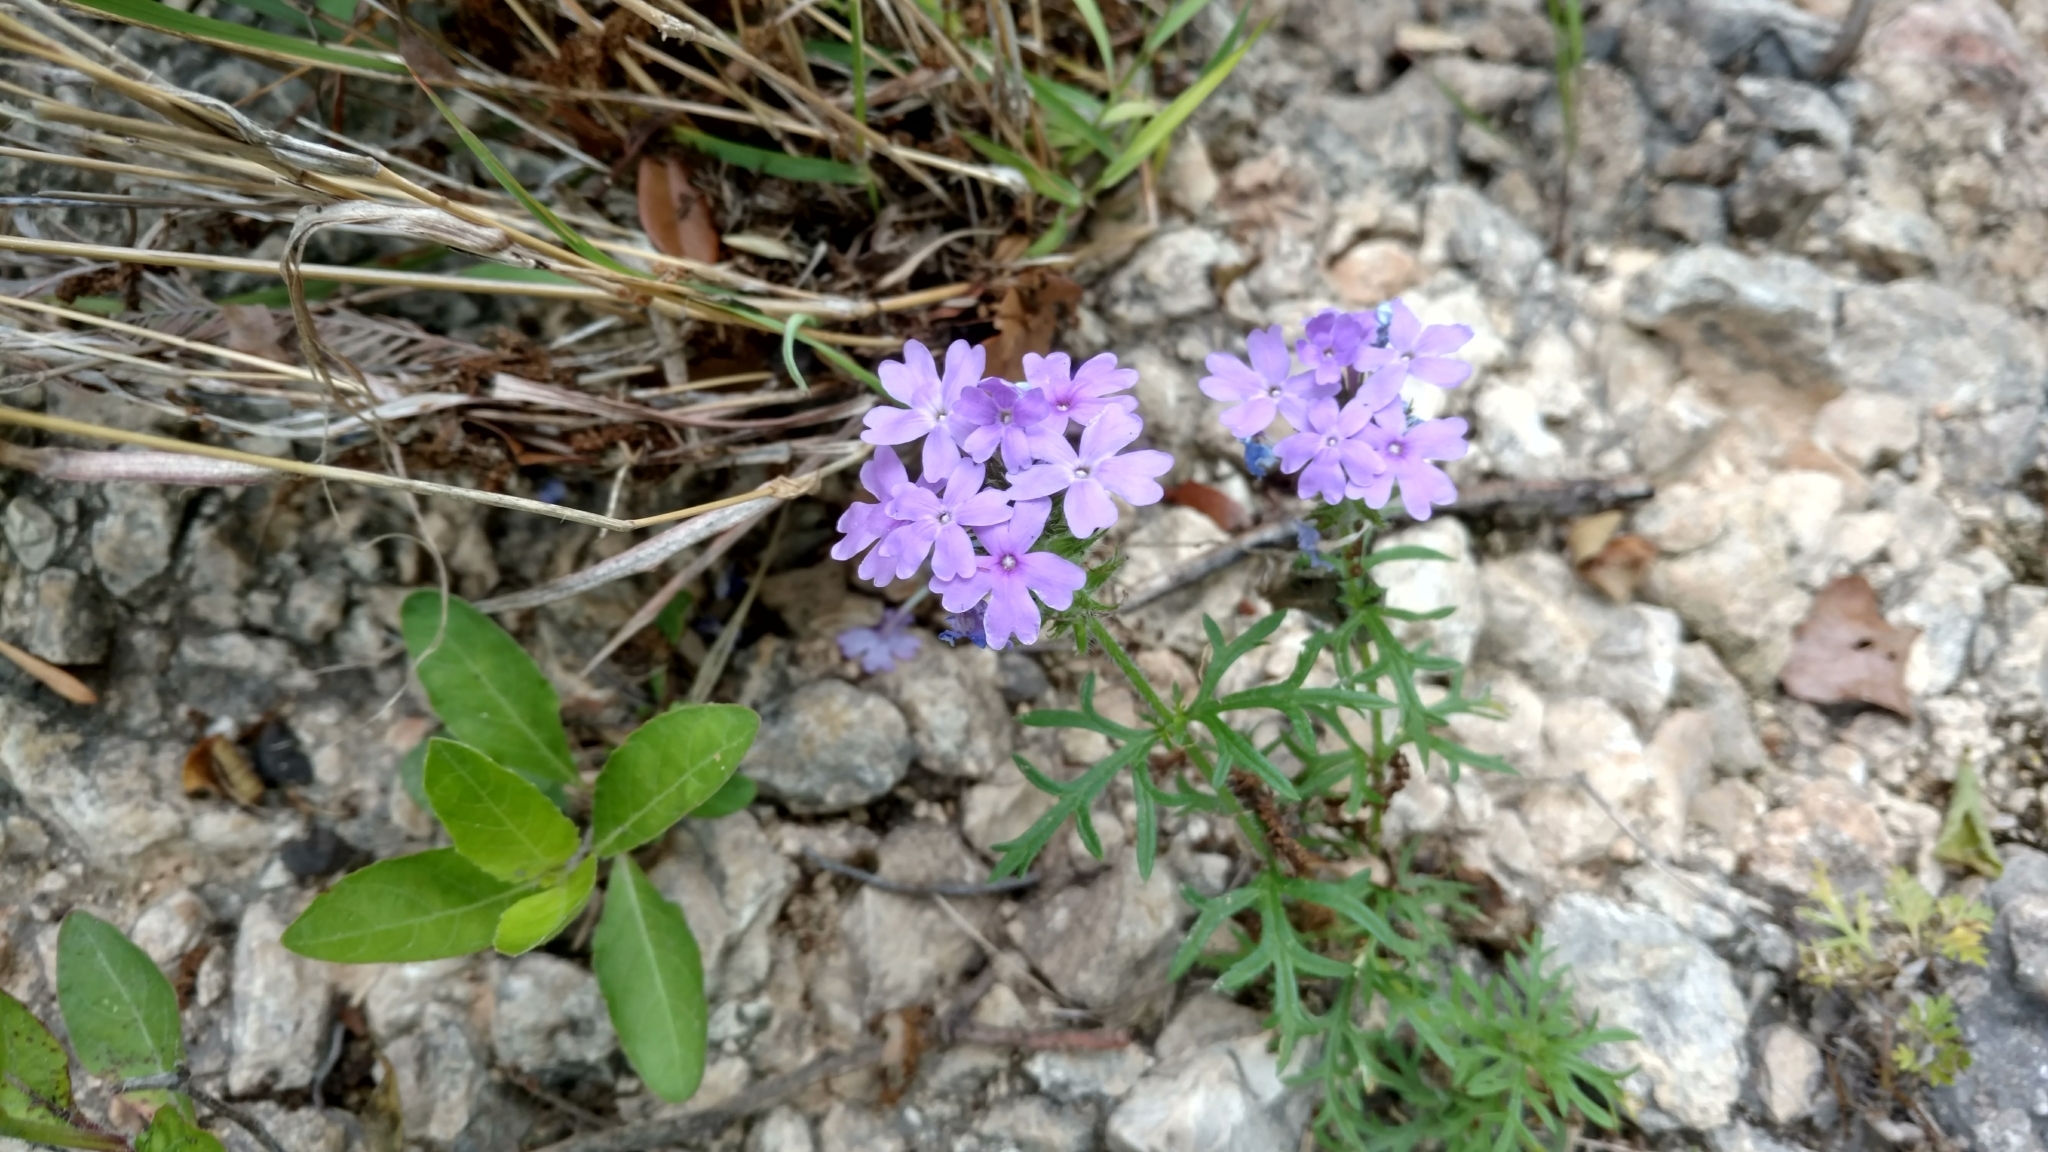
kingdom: Plantae
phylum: Tracheophyta
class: Magnoliopsida
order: Lamiales
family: Verbenaceae
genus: Verbena
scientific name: Verbena bipinnatifida
